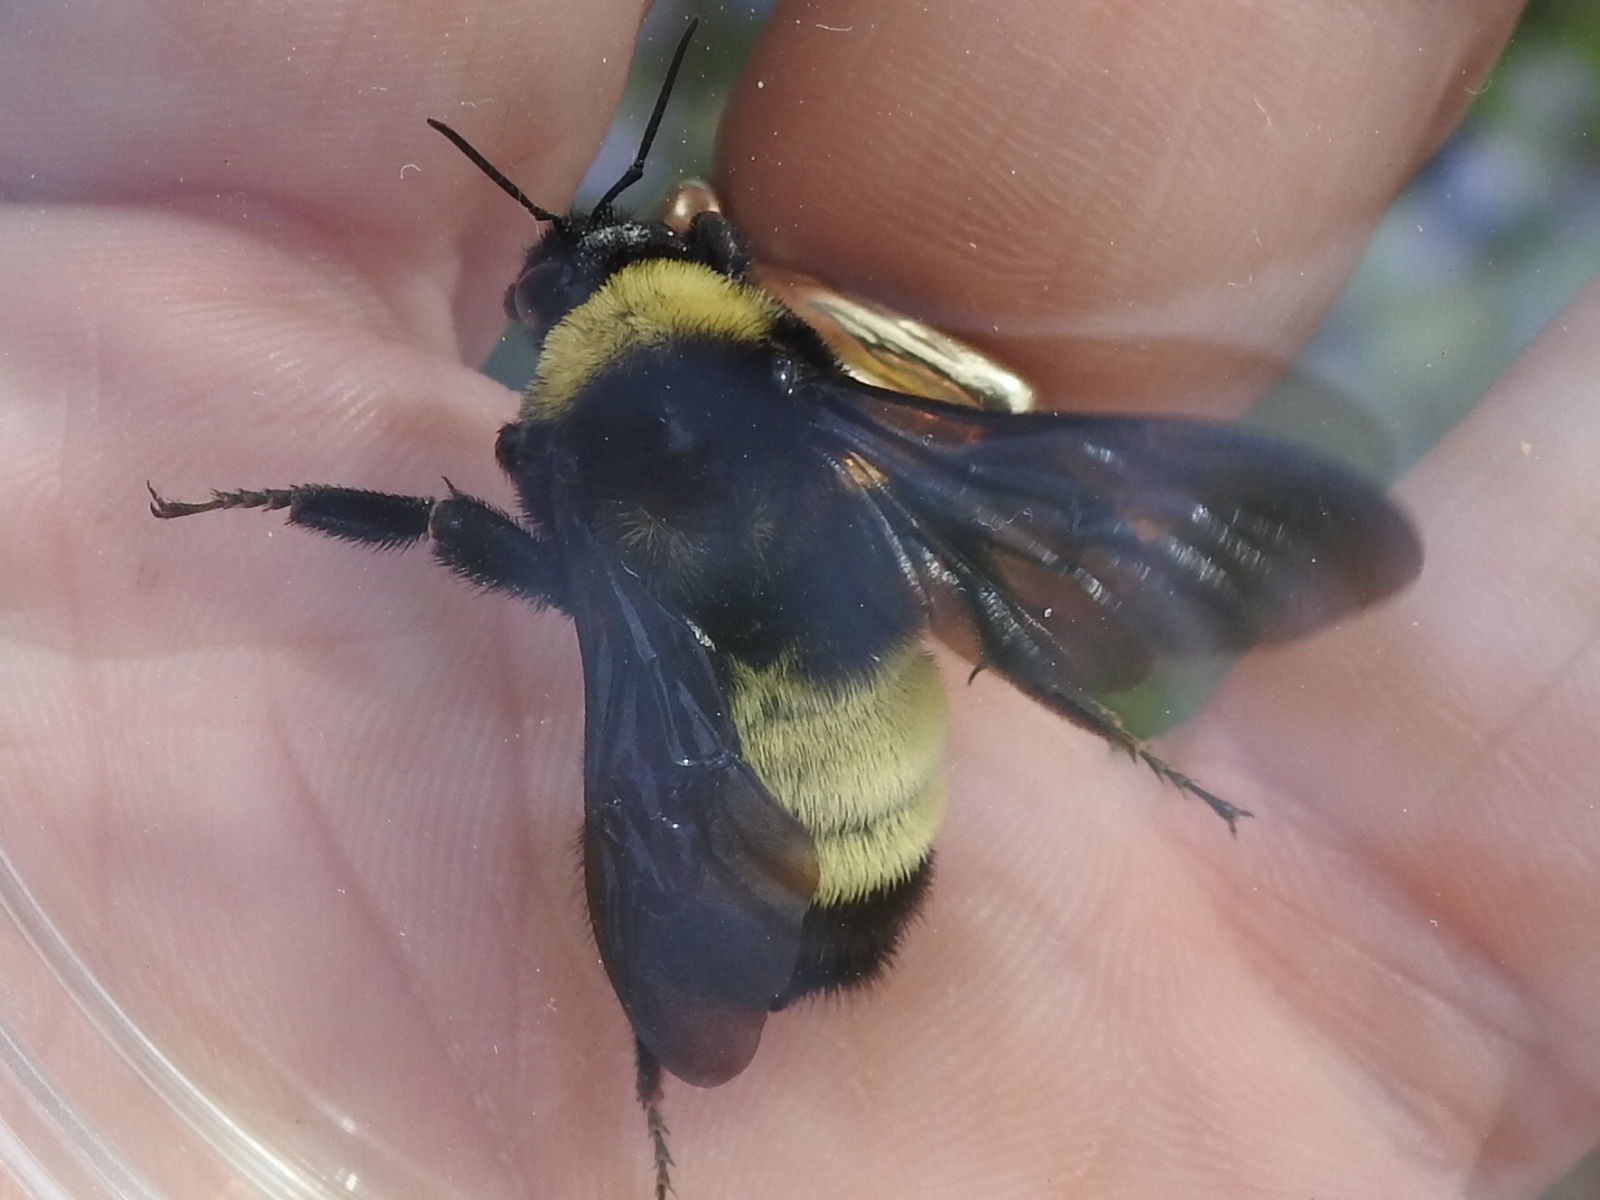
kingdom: Animalia
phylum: Arthropoda
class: Insecta
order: Hymenoptera
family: Apidae
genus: Bombus
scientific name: Bombus pensylvanicus
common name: Bumble bee
